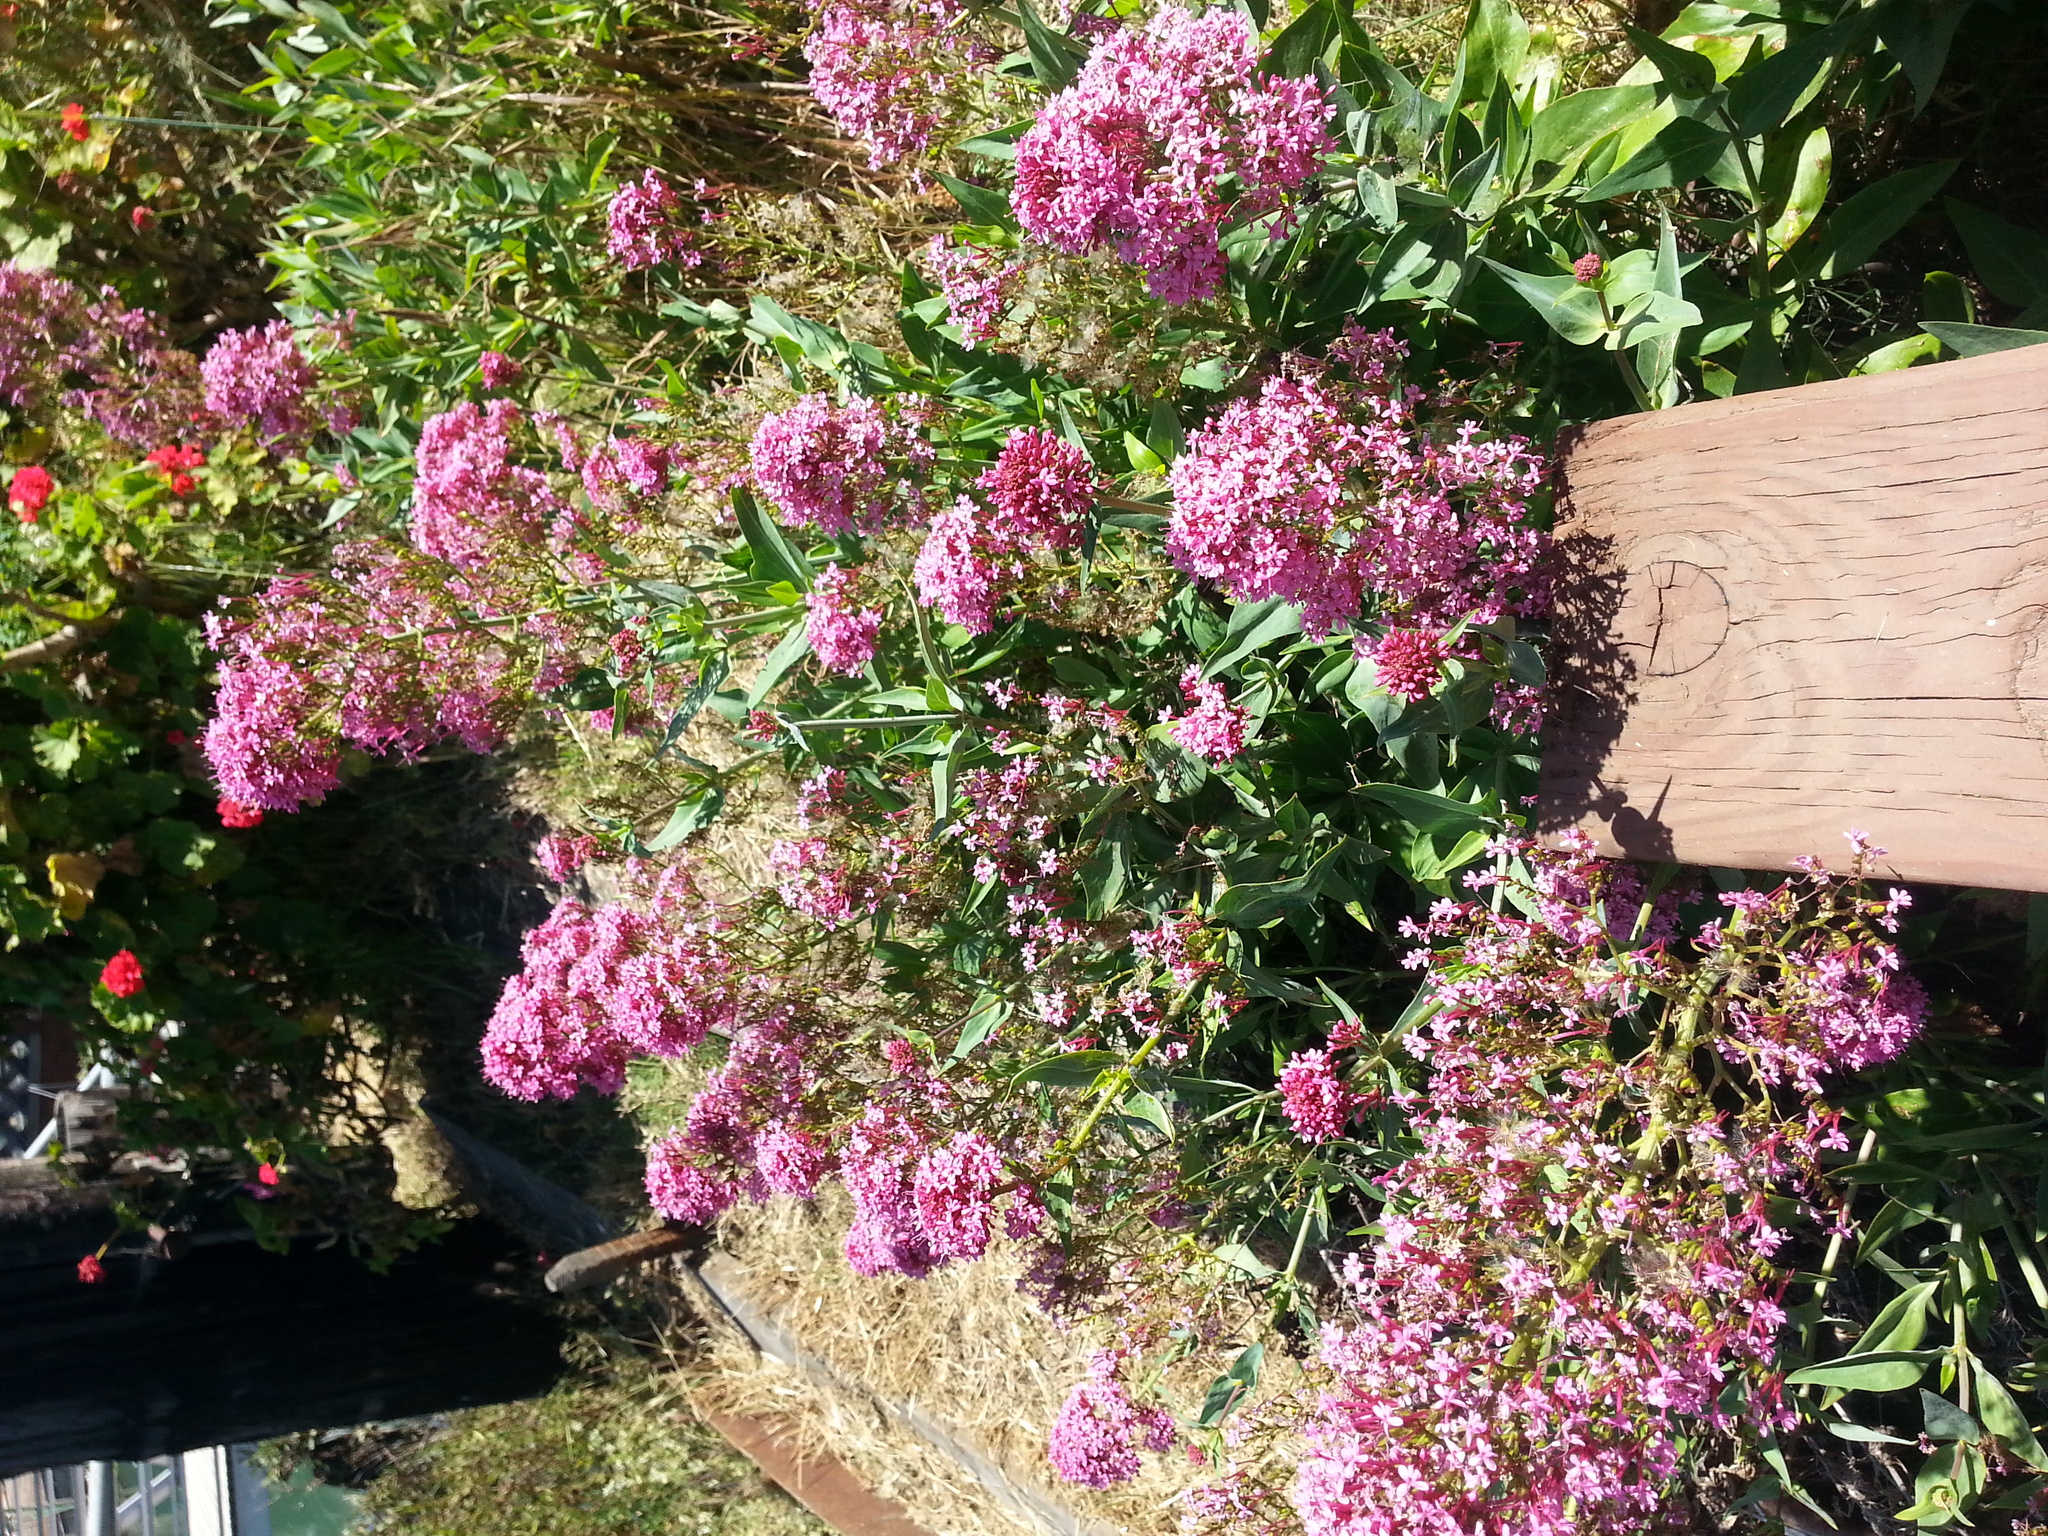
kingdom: Plantae
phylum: Tracheophyta
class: Magnoliopsida
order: Dipsacales
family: Caprifoliaceae
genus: Centranthus
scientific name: Centranthus ruber
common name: Red valerian
